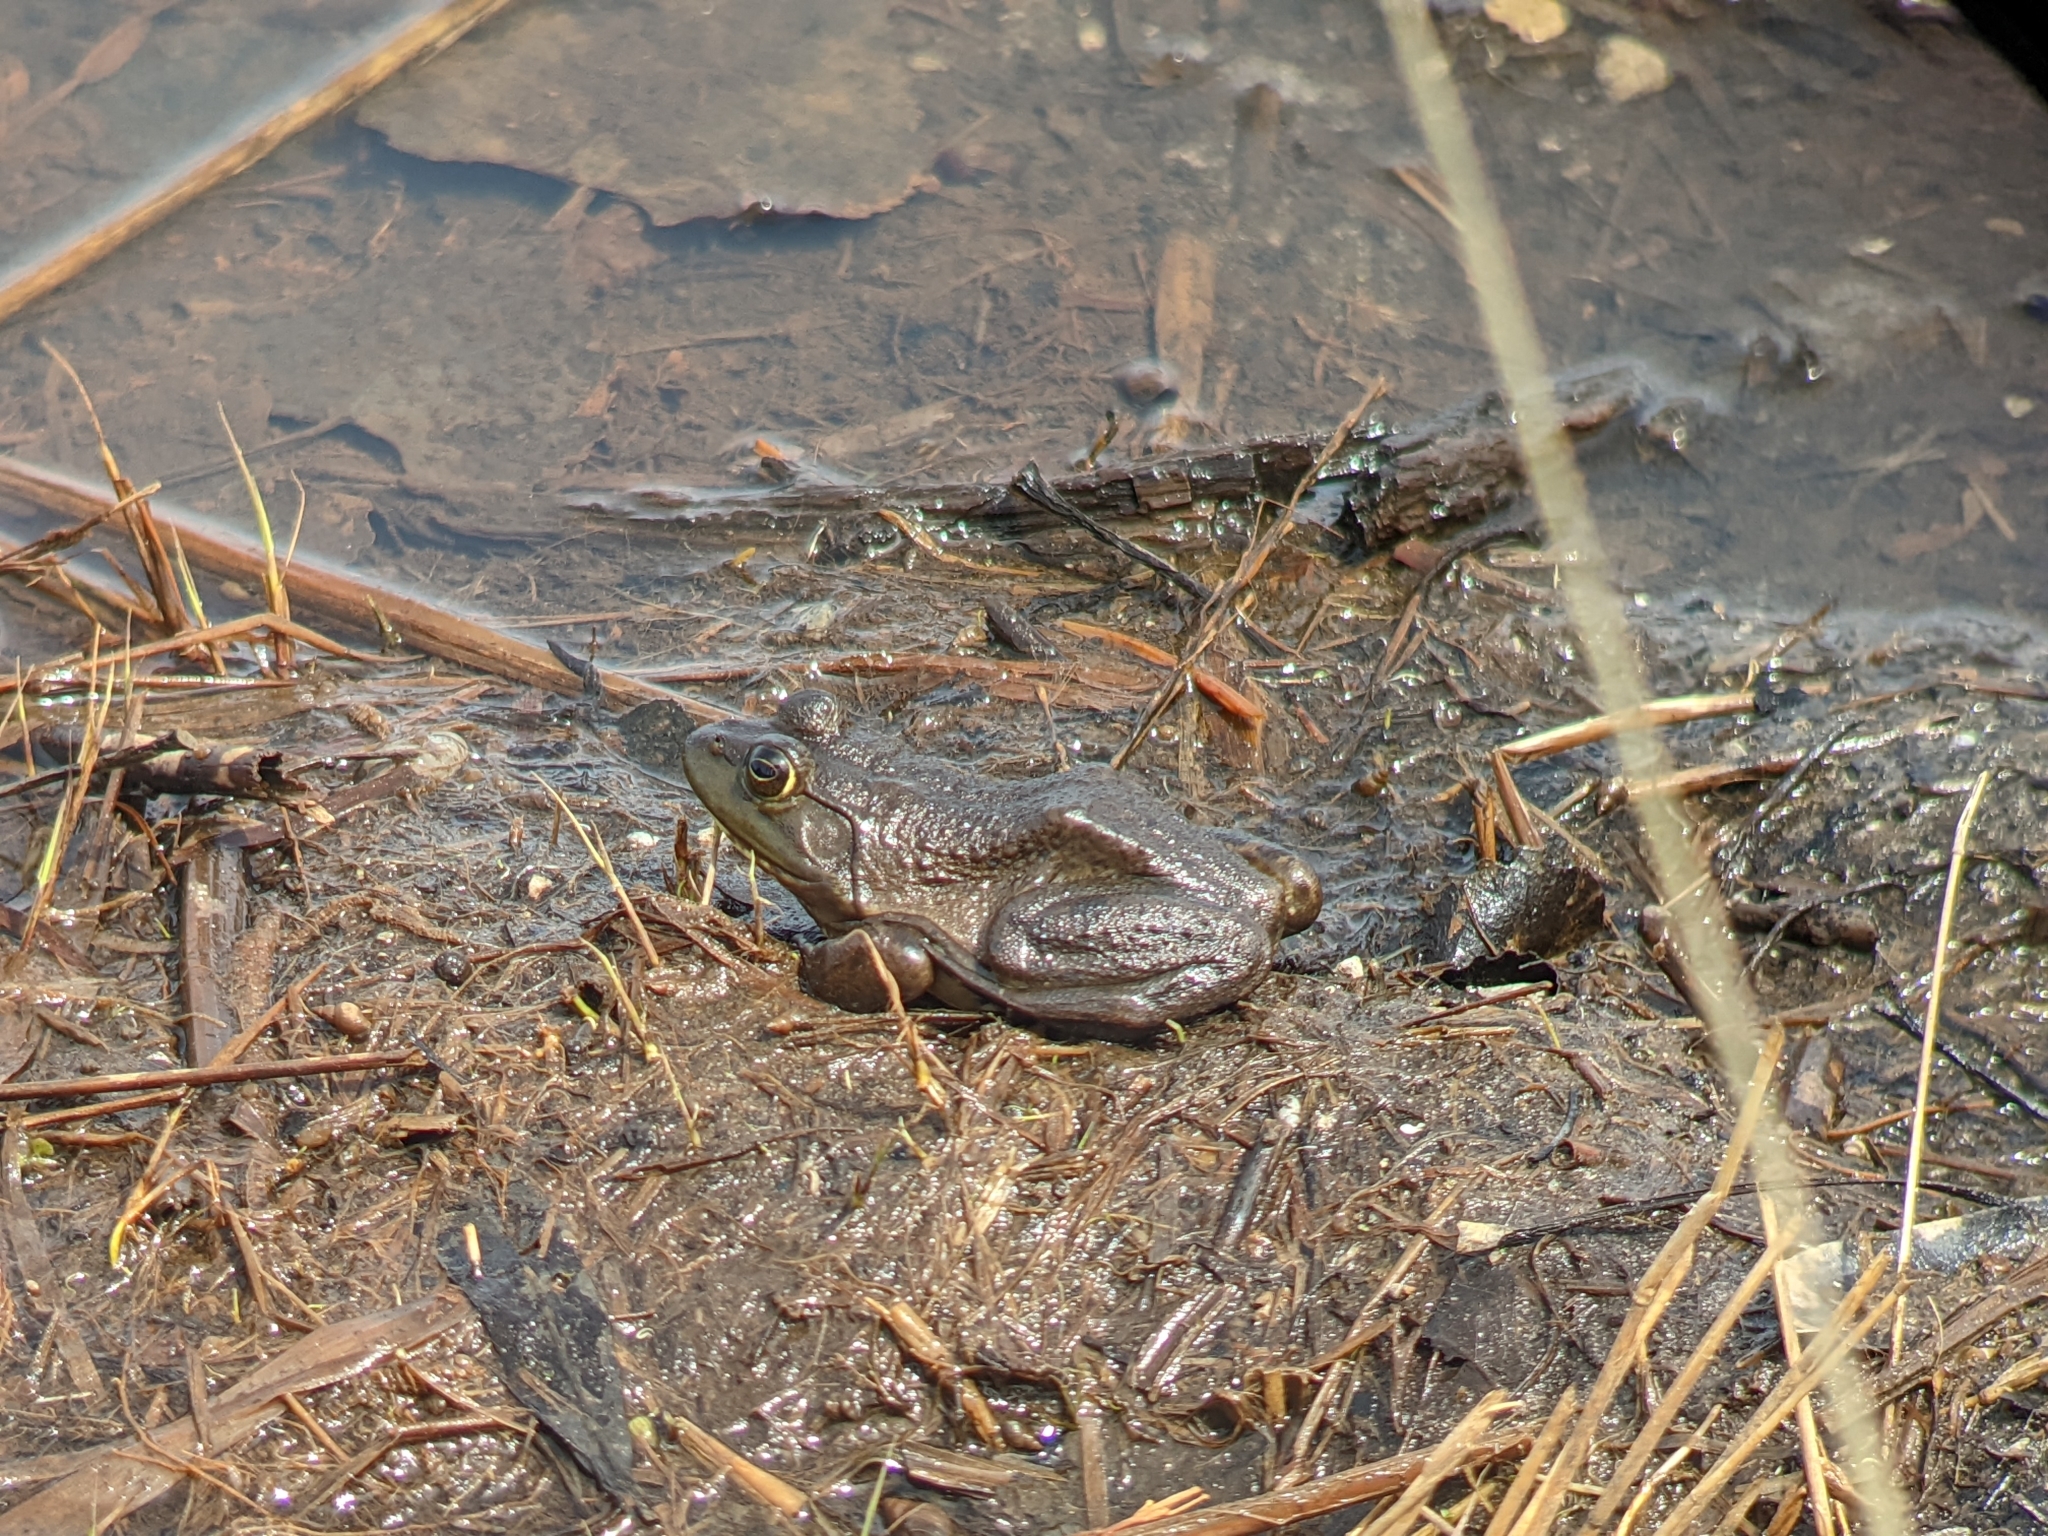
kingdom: Animalia
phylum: Chordata
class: Amphibia
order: Anura
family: Ranidae
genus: Lithobates
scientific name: Lithobates catesbeianus
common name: American bullfrog
